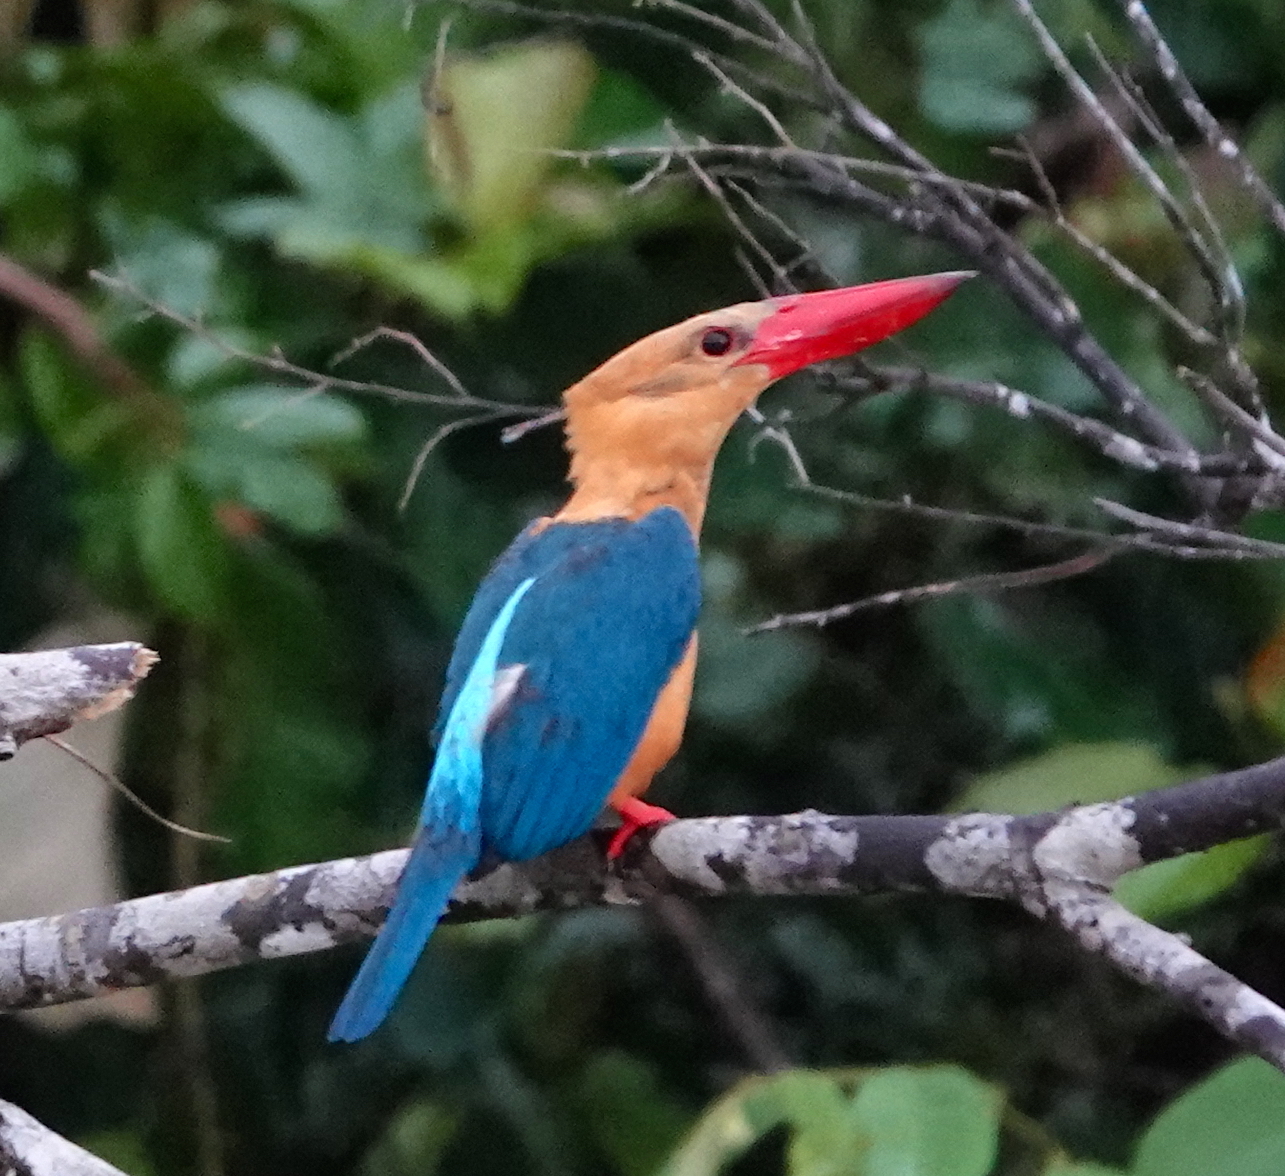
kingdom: Animalia
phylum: Chordata
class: Aves
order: Coraciiformes
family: Alcedinidae
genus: Pelargopsis
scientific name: Pelargopsis capensis
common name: Stork-billed kingfisher
